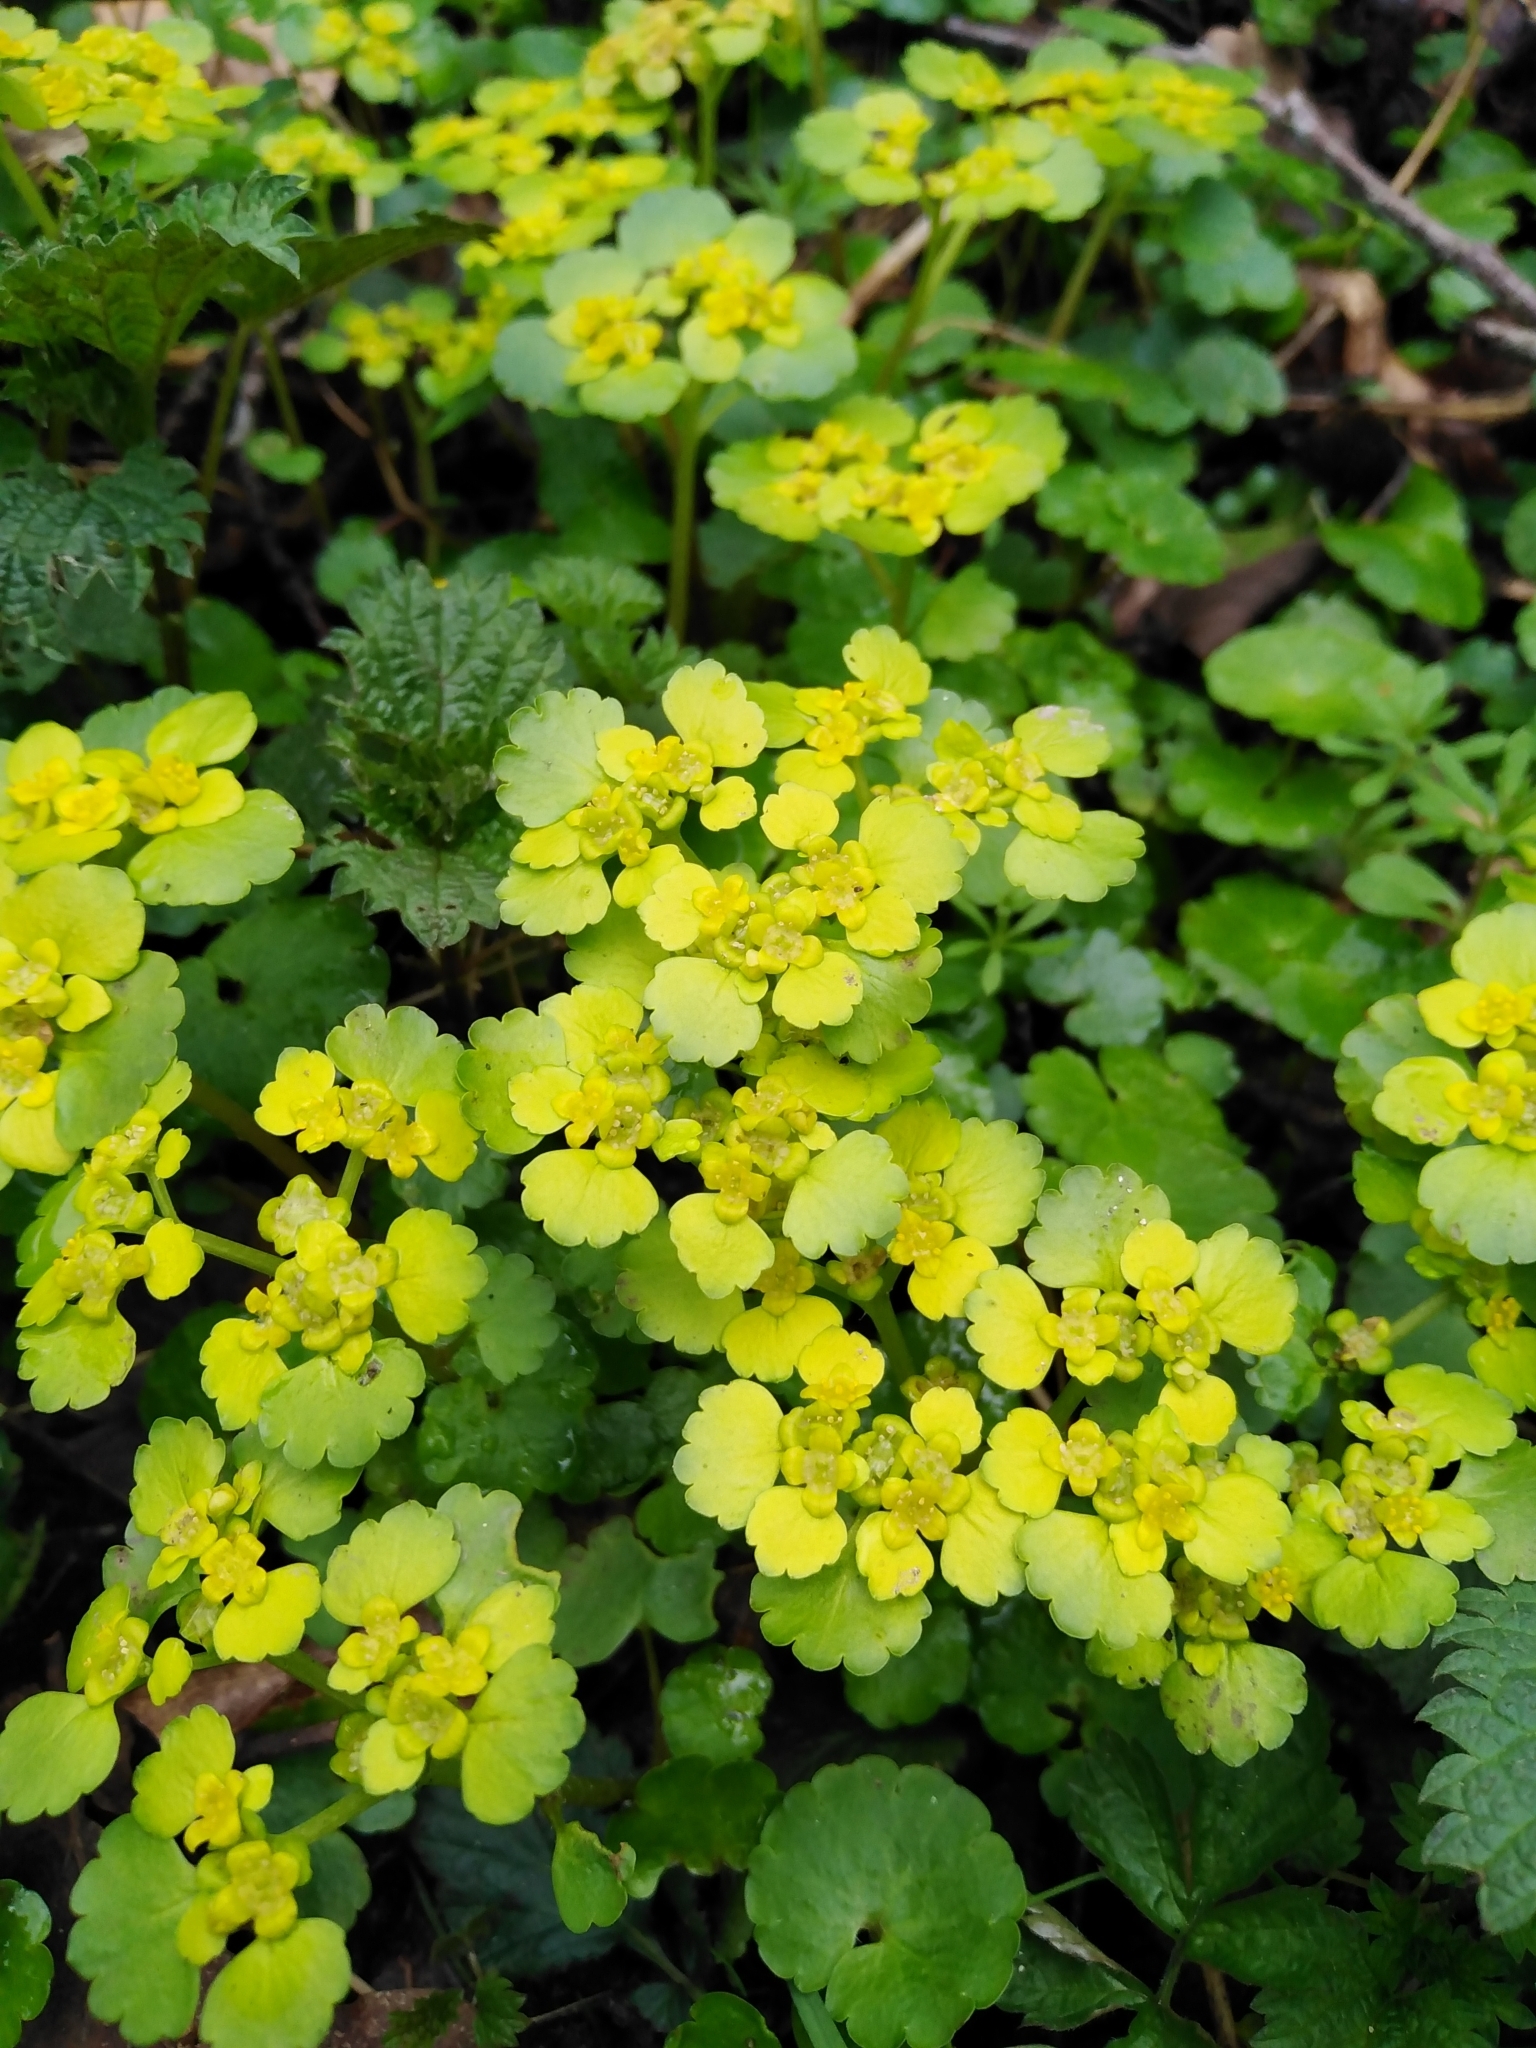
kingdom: Plantae
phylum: Tracheophyta
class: Magnoliopsida
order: Saxifragales
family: Saxifragaceae
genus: Chrysosplenium
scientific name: Chrysosplenium alternifolium
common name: Alternate-leaved golden-saxifrage
